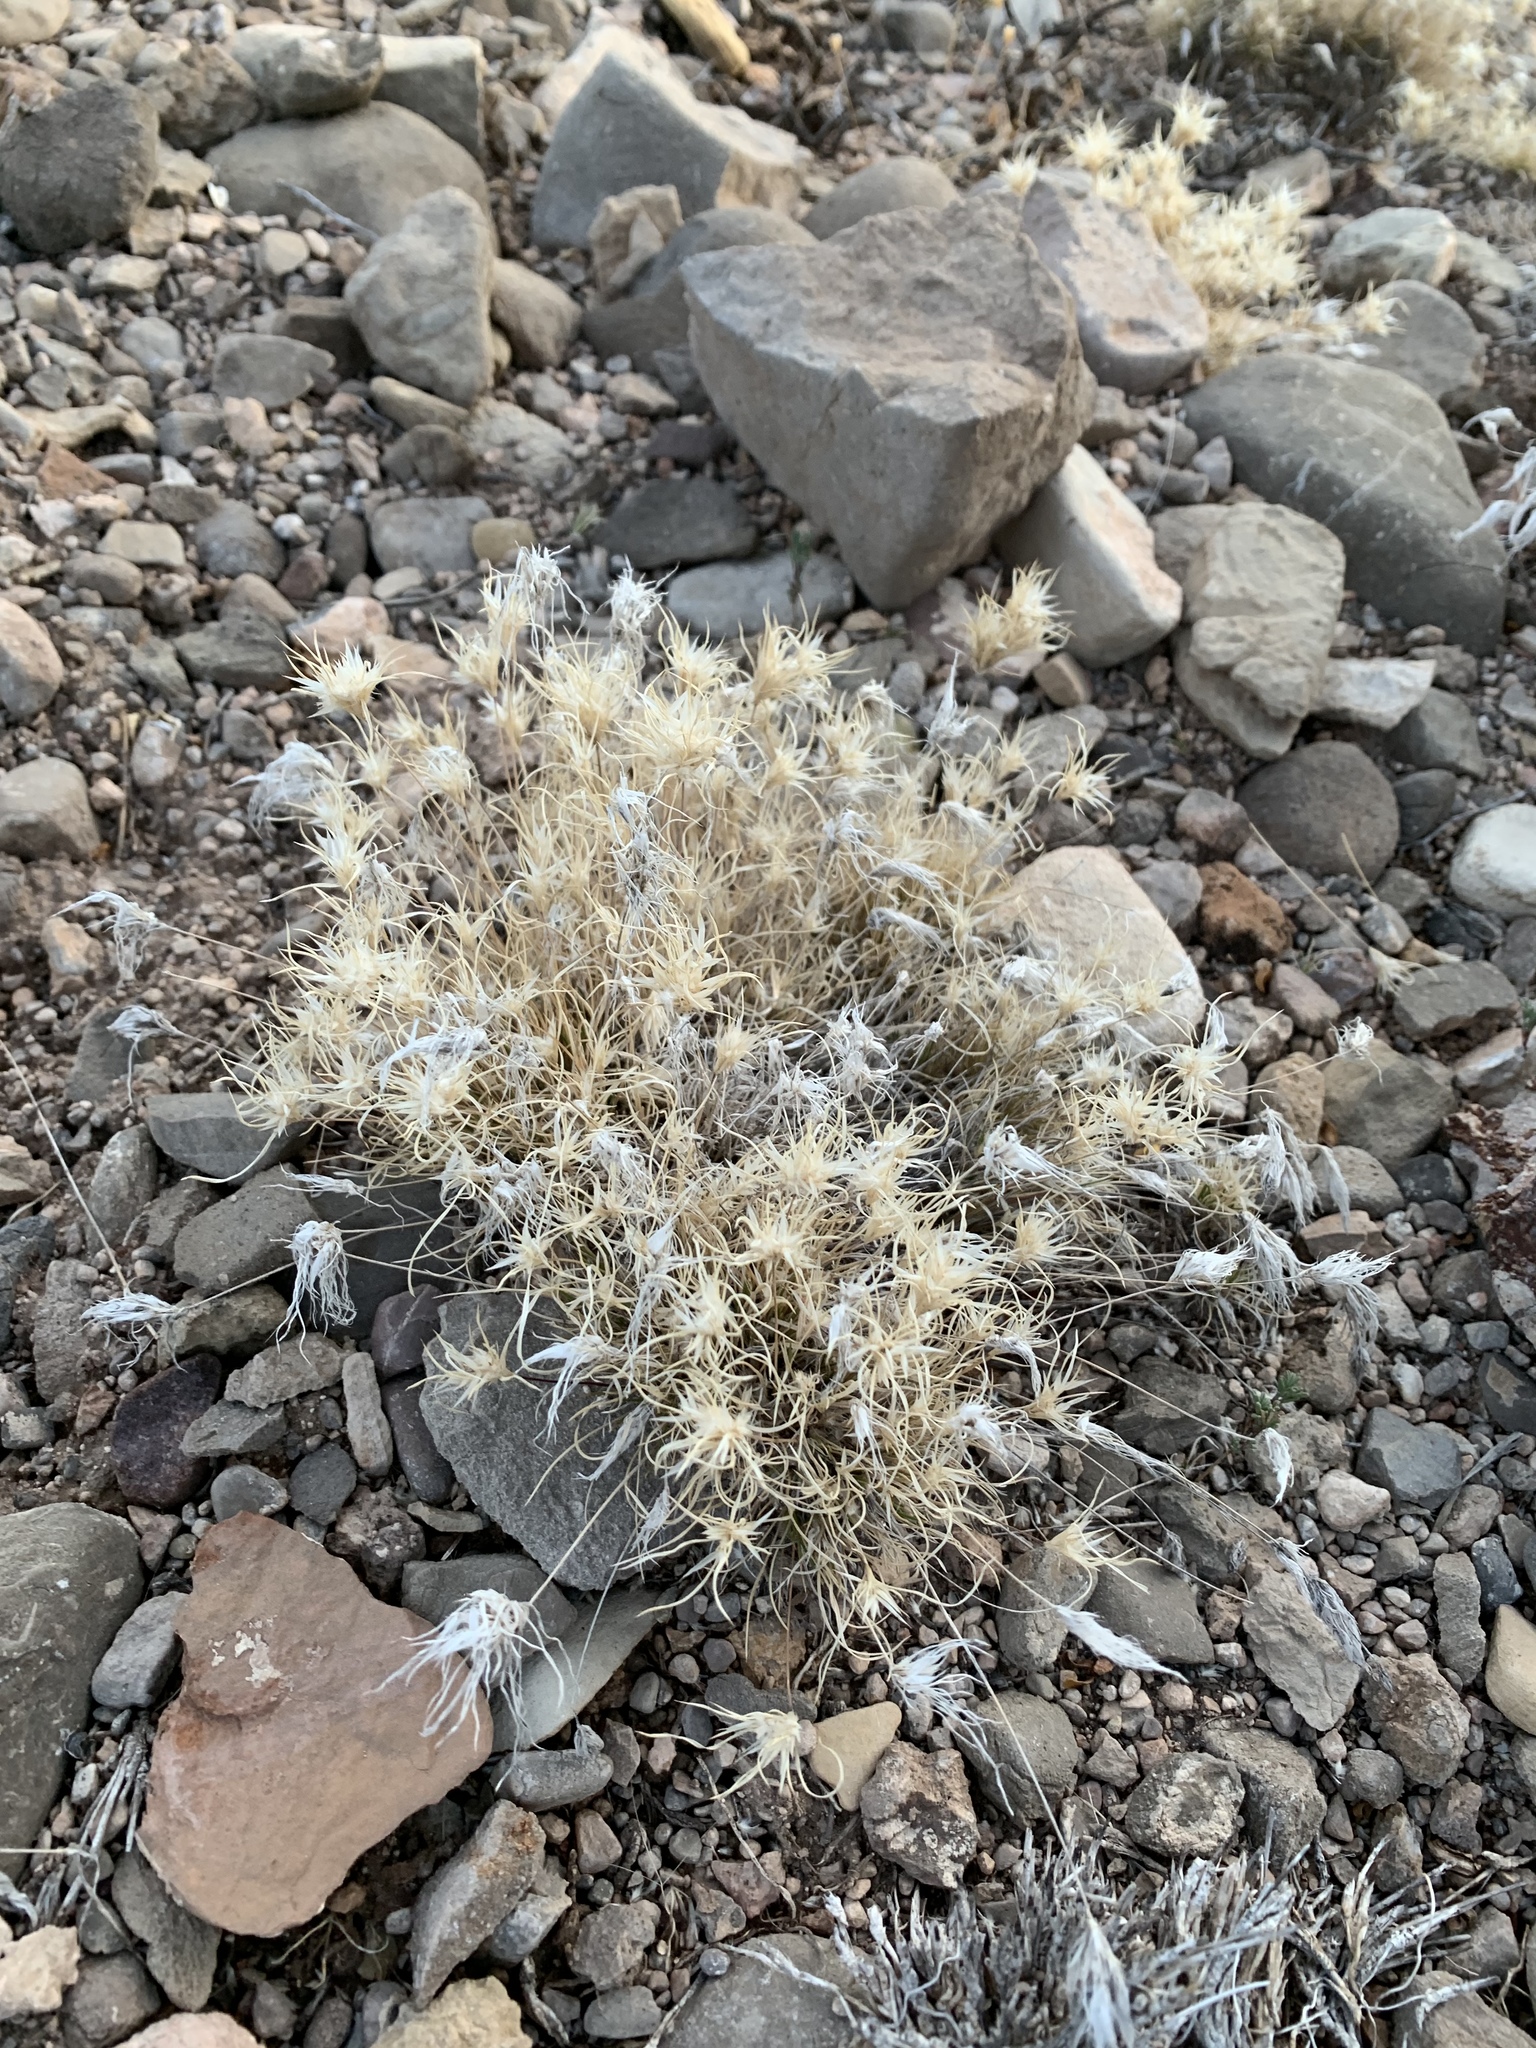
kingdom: Plantae
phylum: Tracheophyta
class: Liliopsida
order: Poales
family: Poaceae
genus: Dasyochloa
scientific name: Dasyochloa pulchella
